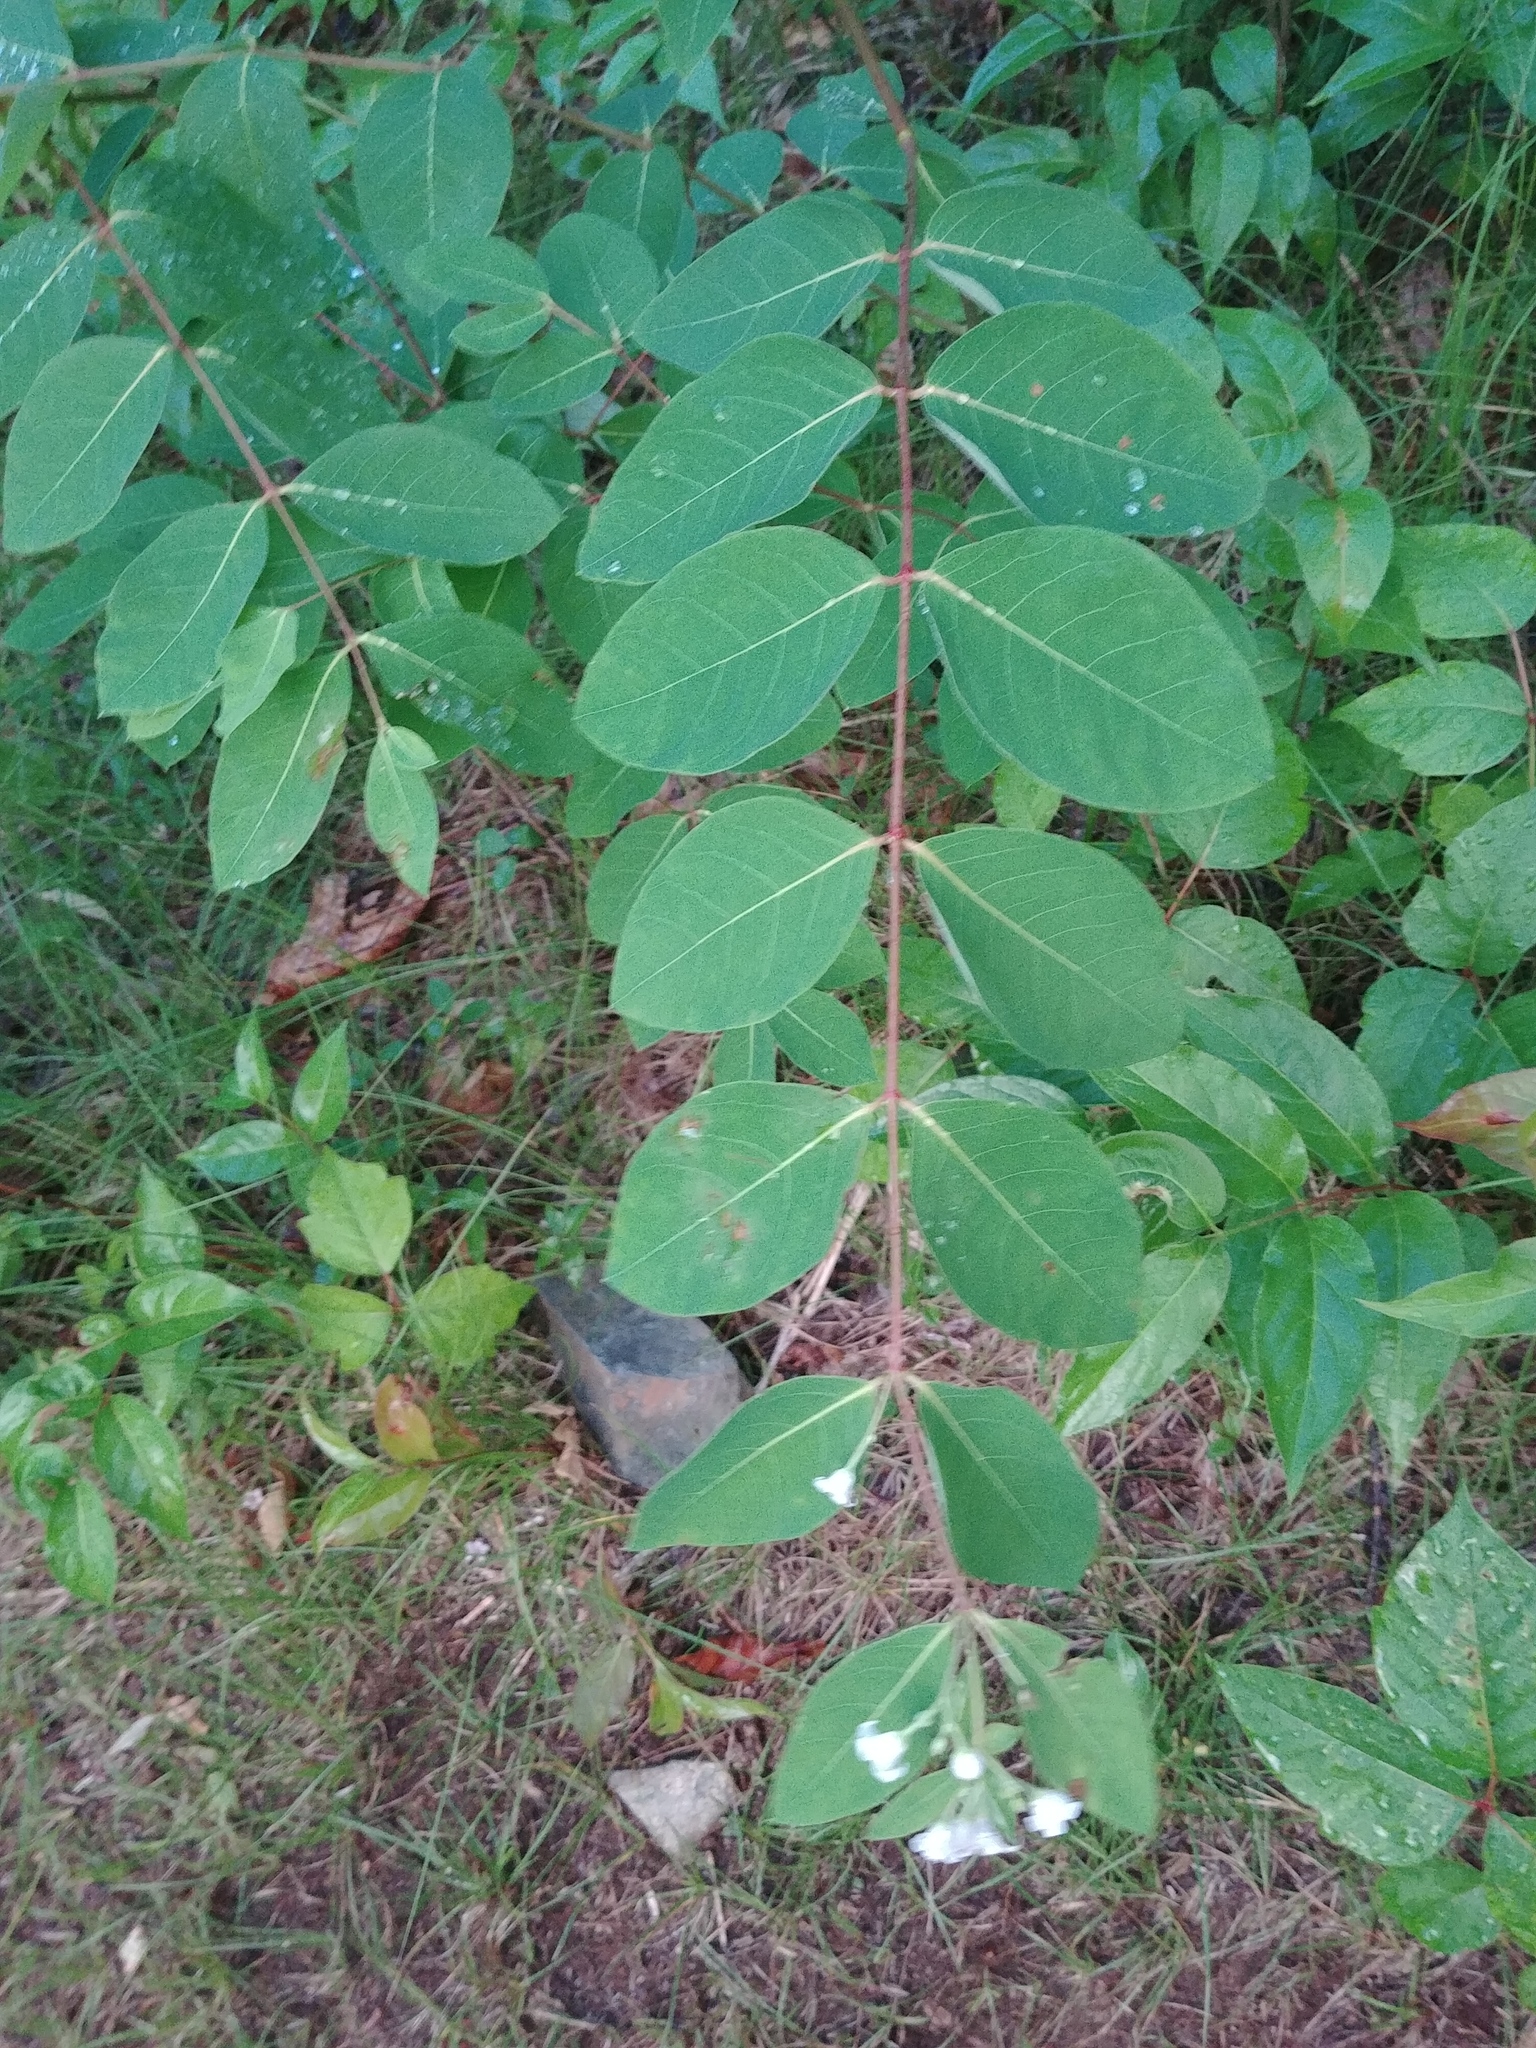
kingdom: Plantae
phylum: Tracheophyta
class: Magnoliopsida
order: Gentianales
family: Apocynaceae
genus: Apocynum
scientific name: Apocynum androsaemifolium
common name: Spreading dogbane
